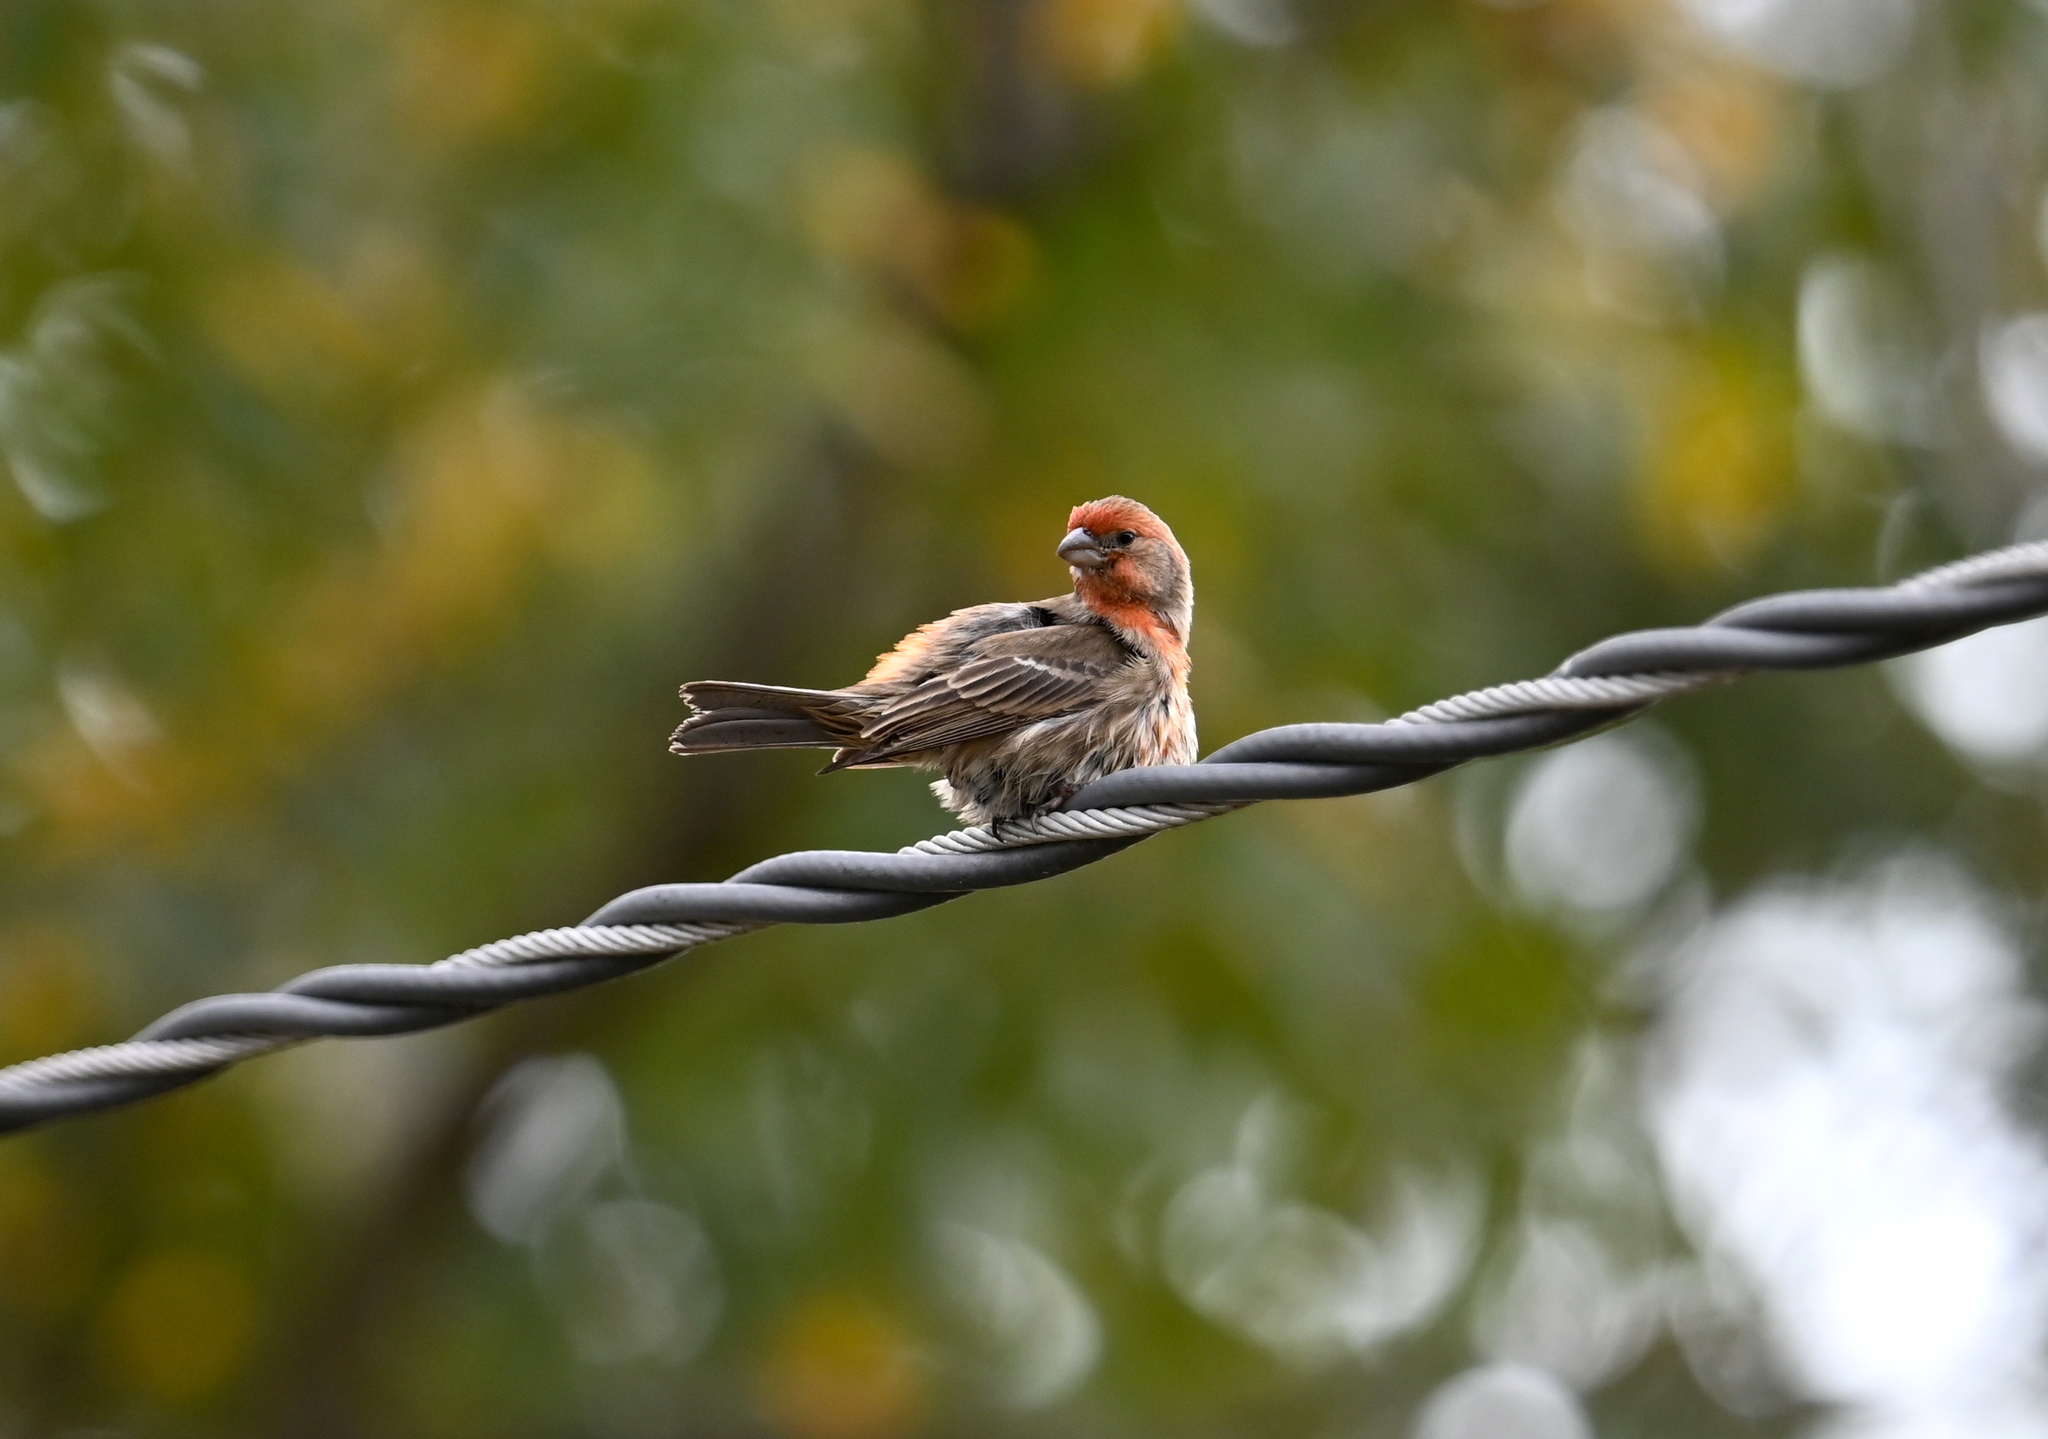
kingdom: Animalia
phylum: Chordata
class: Aves
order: Passeriformes
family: Fringillidae
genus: Haemorhous
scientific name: Haemorhous mexicanus
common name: House finch
